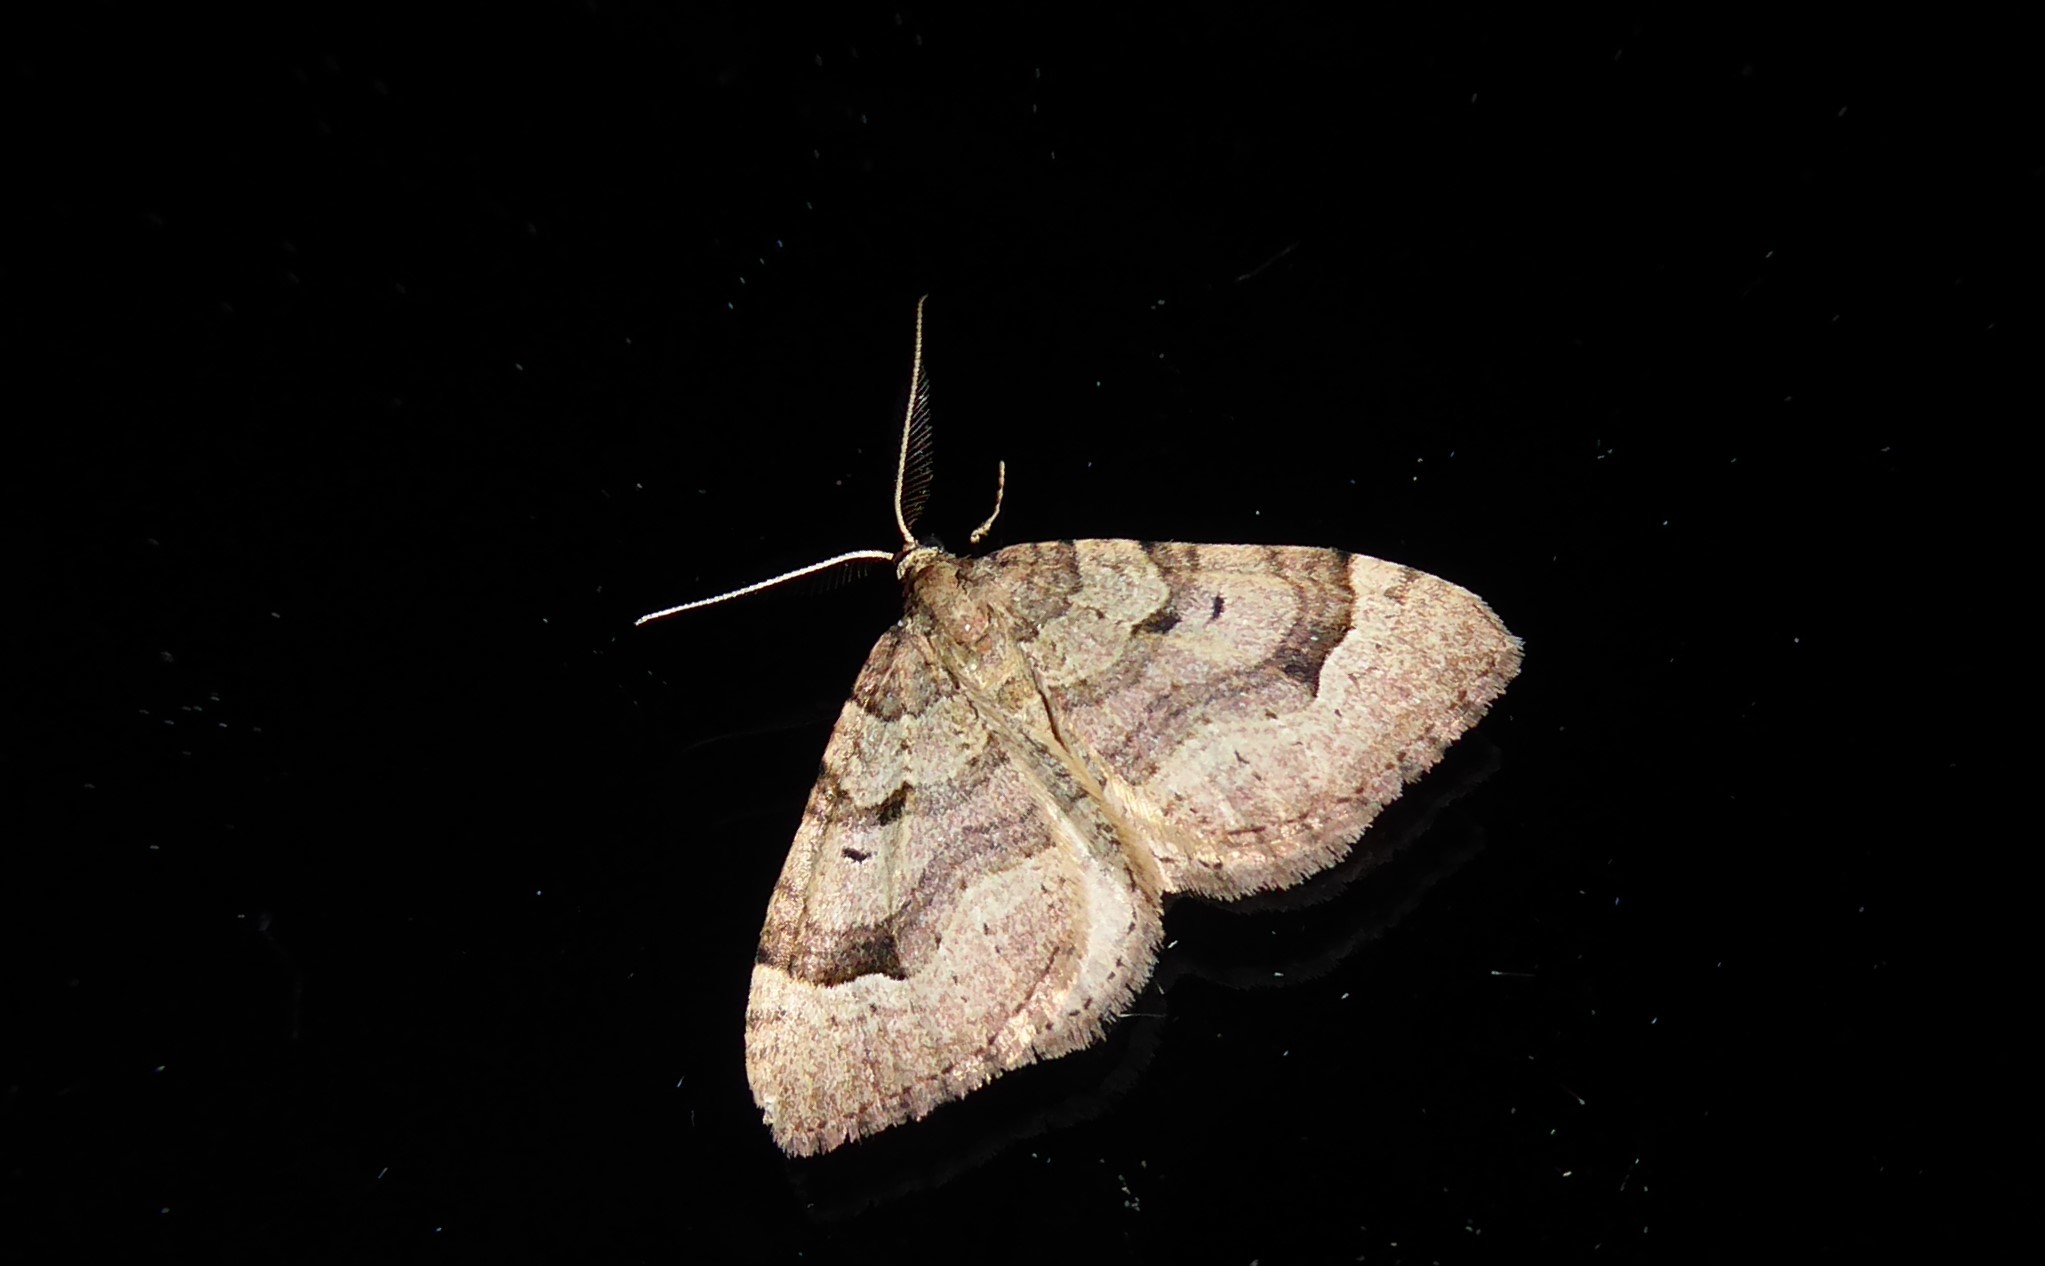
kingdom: Animalia
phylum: Arthropoda
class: Insecta
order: Lepidoptera
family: Geometridae
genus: Epyaxa
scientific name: Epyaxa rosearia
